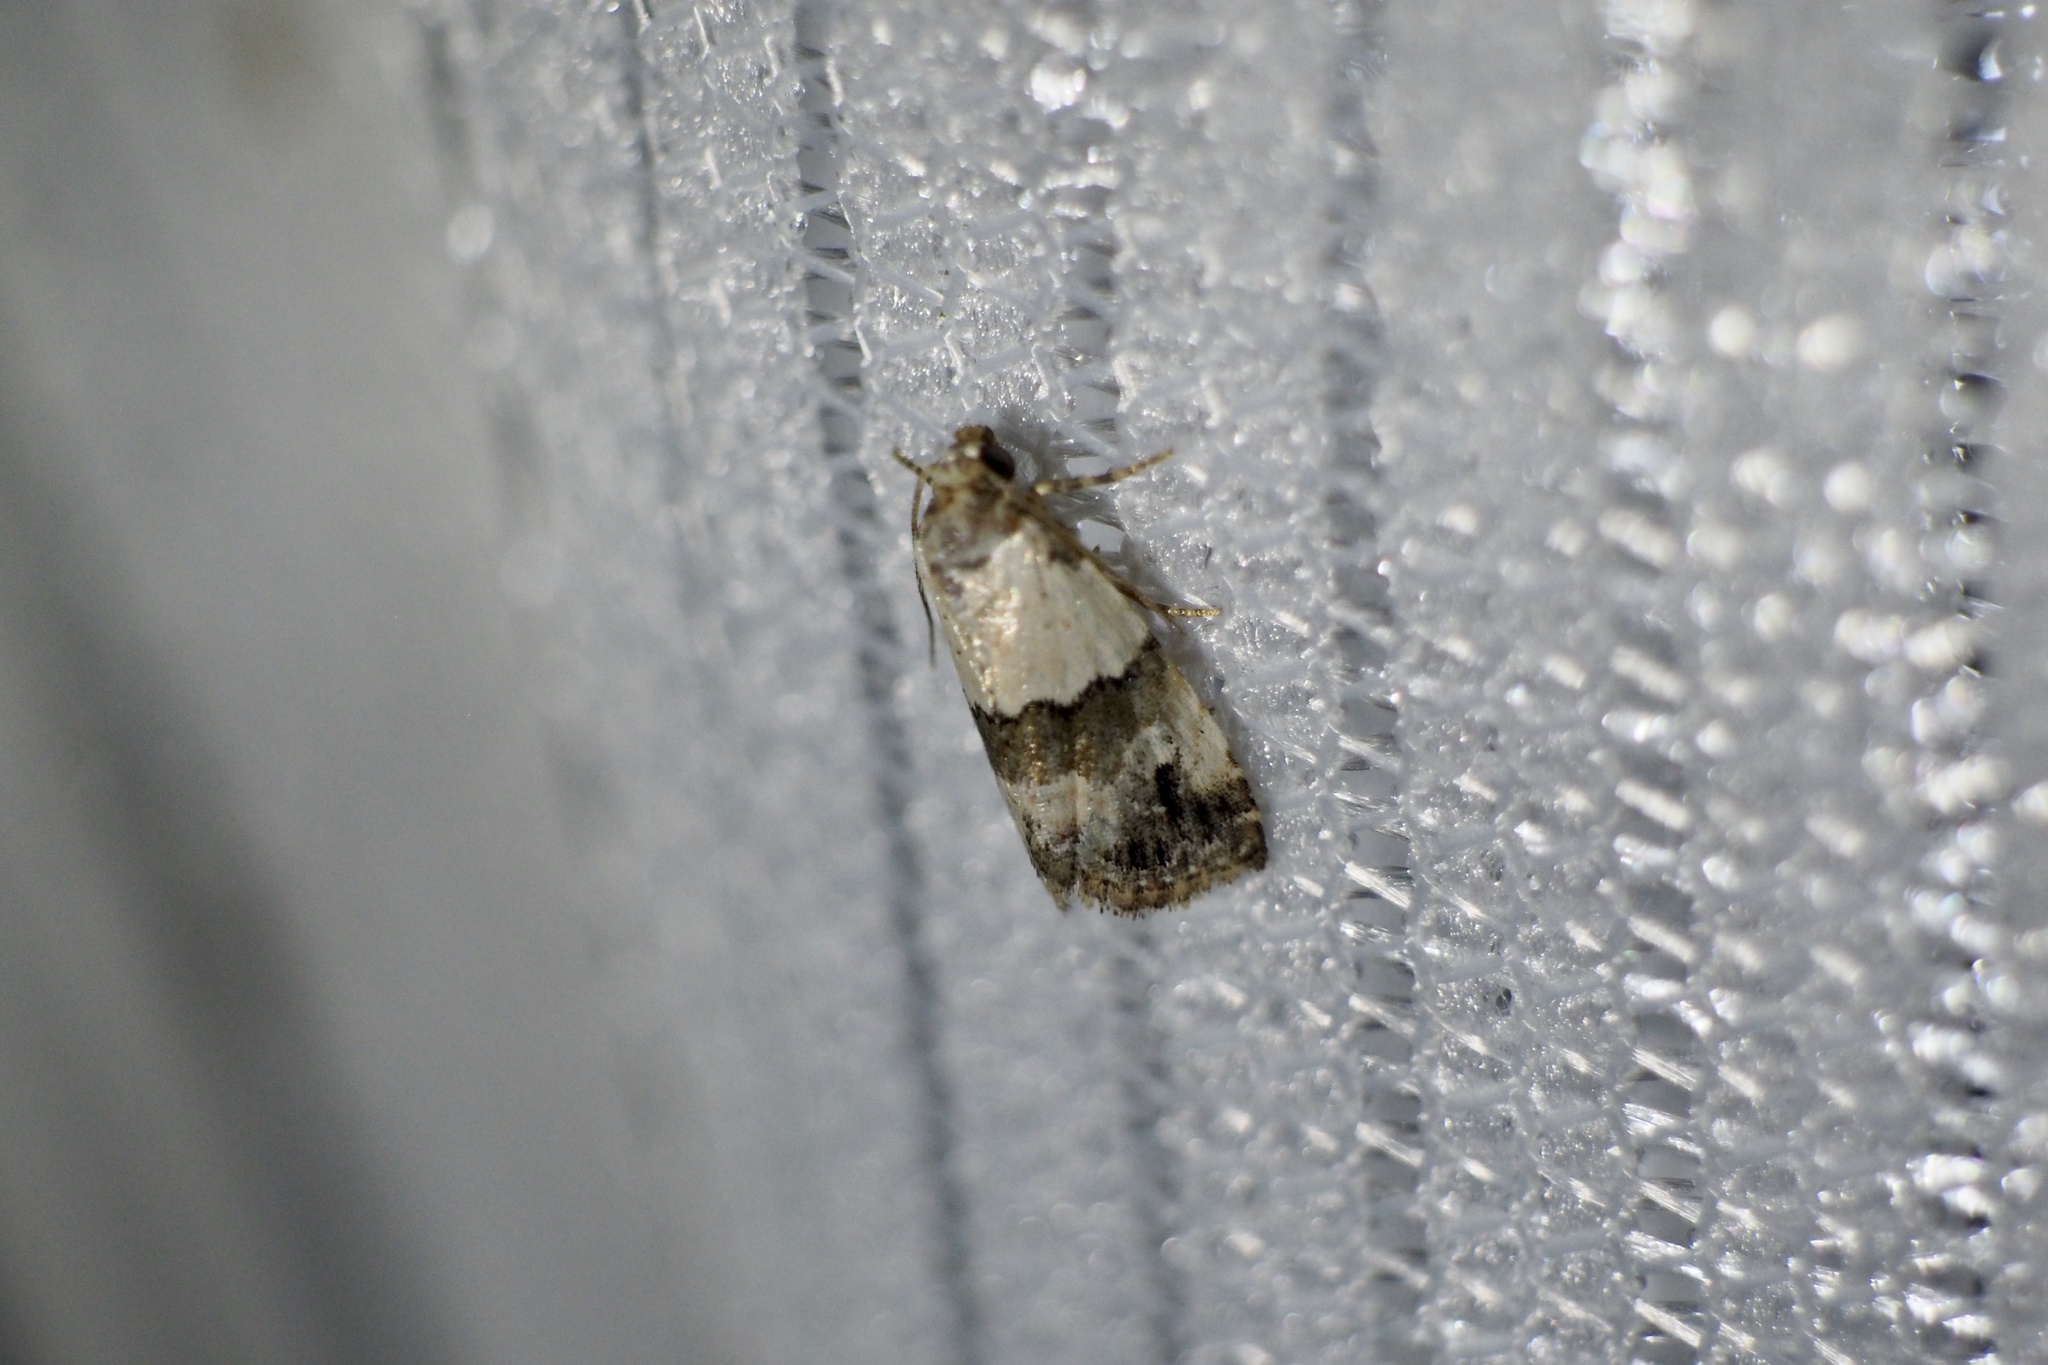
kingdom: Animalia
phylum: Arthropoda
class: Insecta
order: Lepidoptera
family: Noctuidae
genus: Maliattha
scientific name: Maliattha signifera
